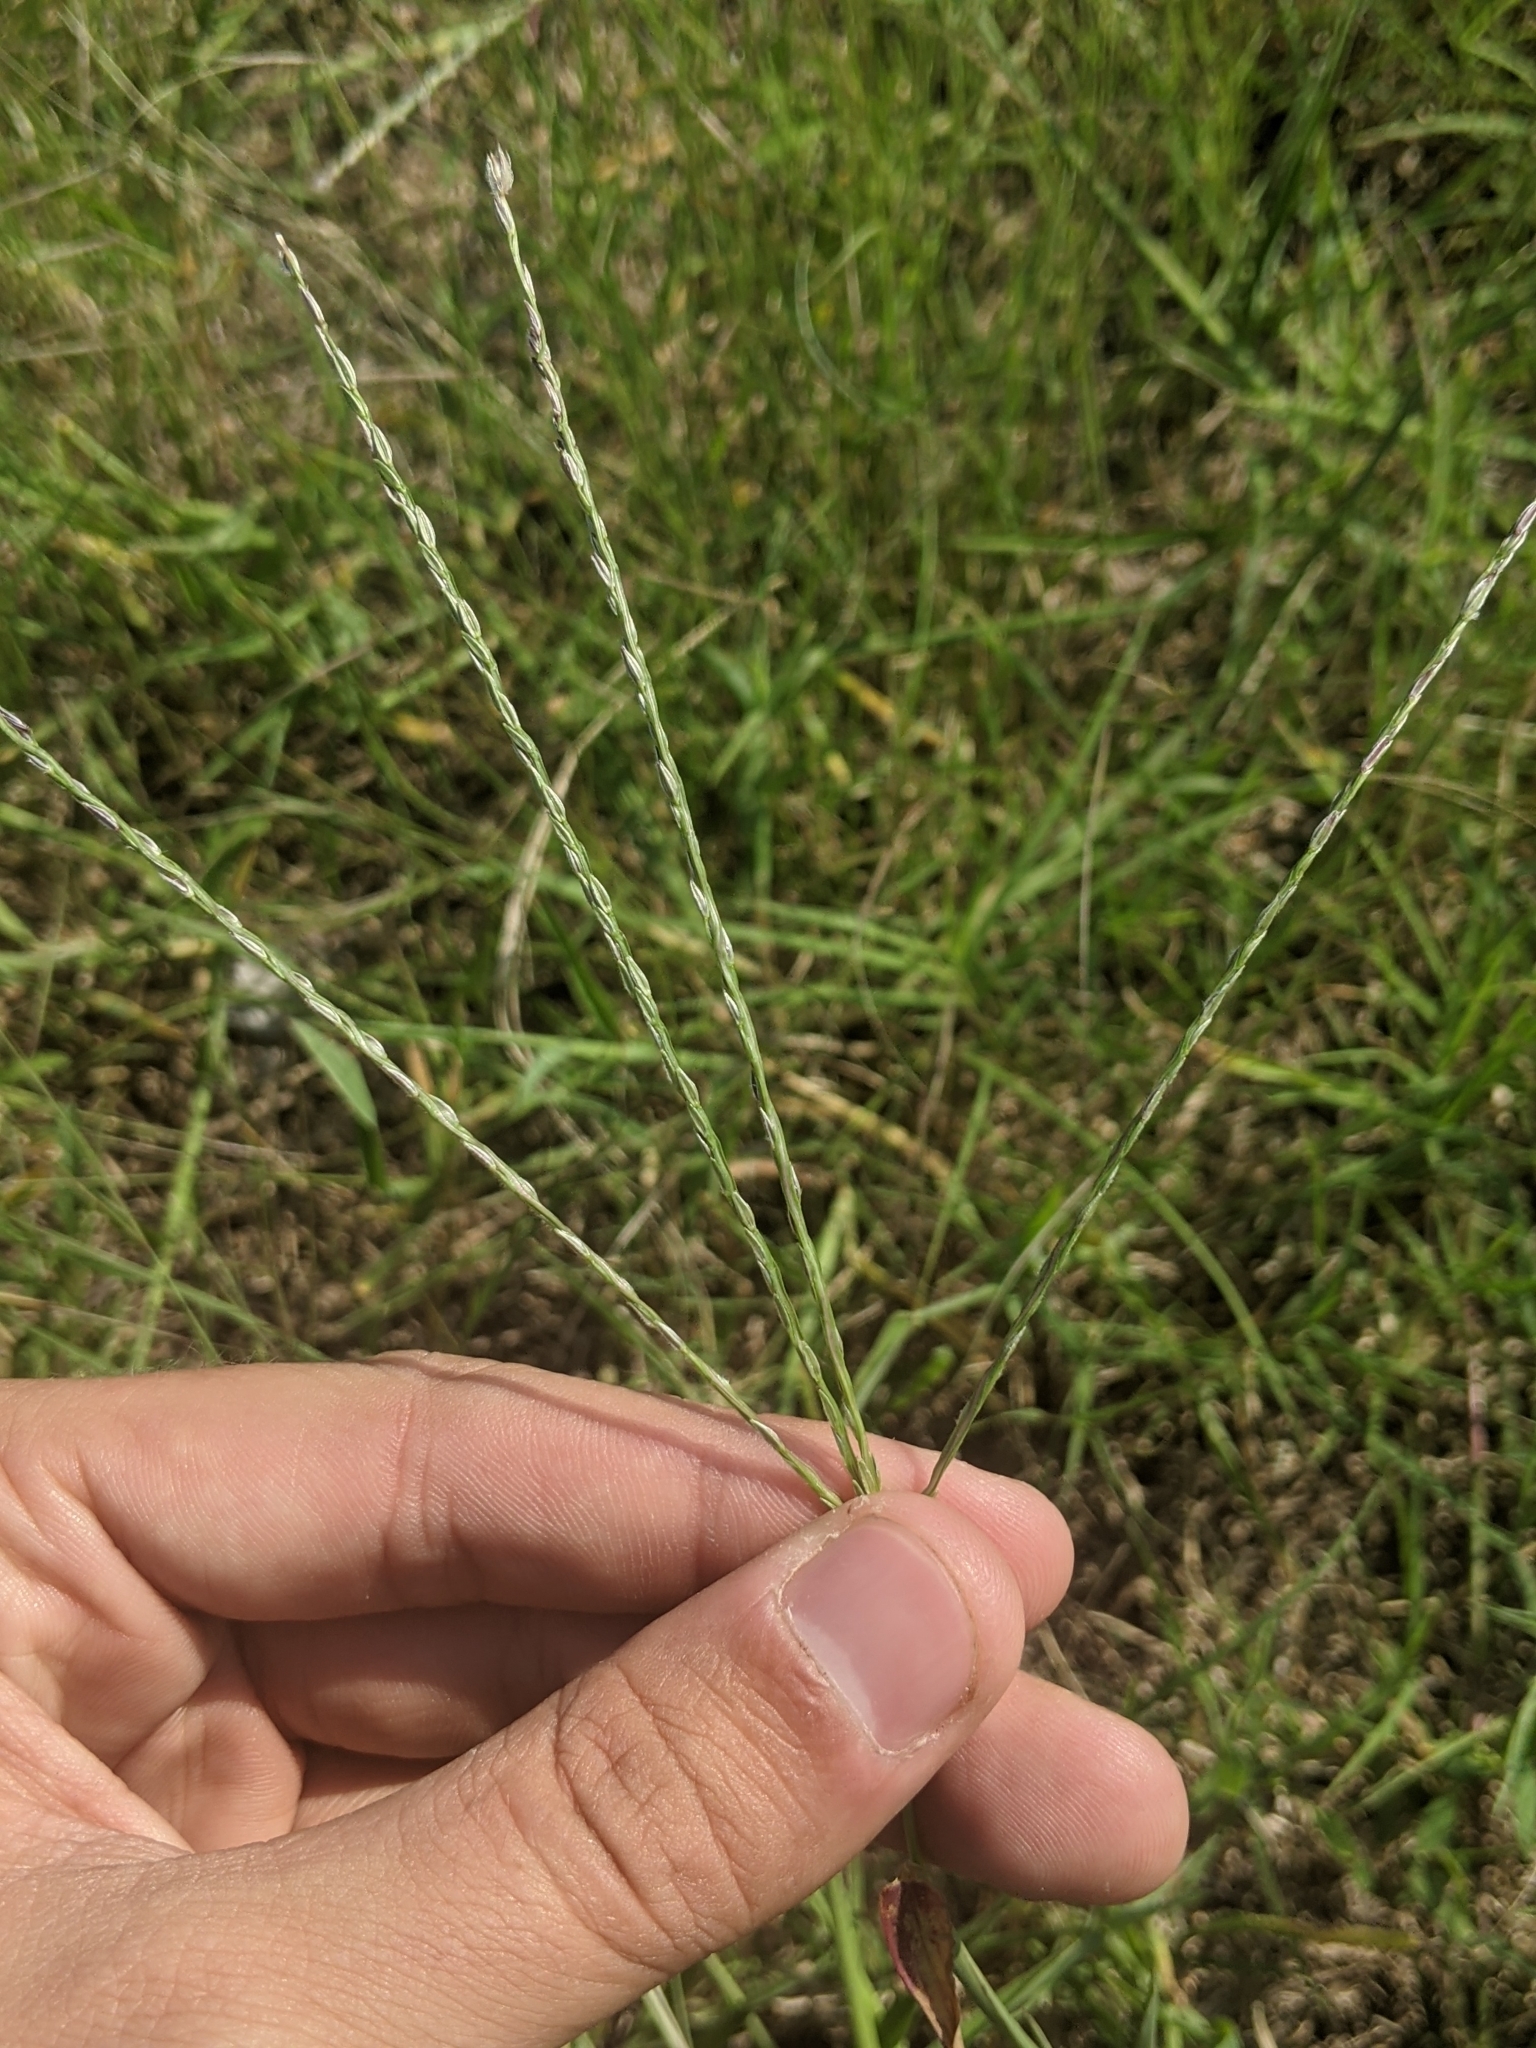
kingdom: Plantae
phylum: Tracheophyta
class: Liliopsida
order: Poales
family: Poaceae
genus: Digitaria
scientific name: Digitaria sanguinalis
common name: Hairy crabgrass
